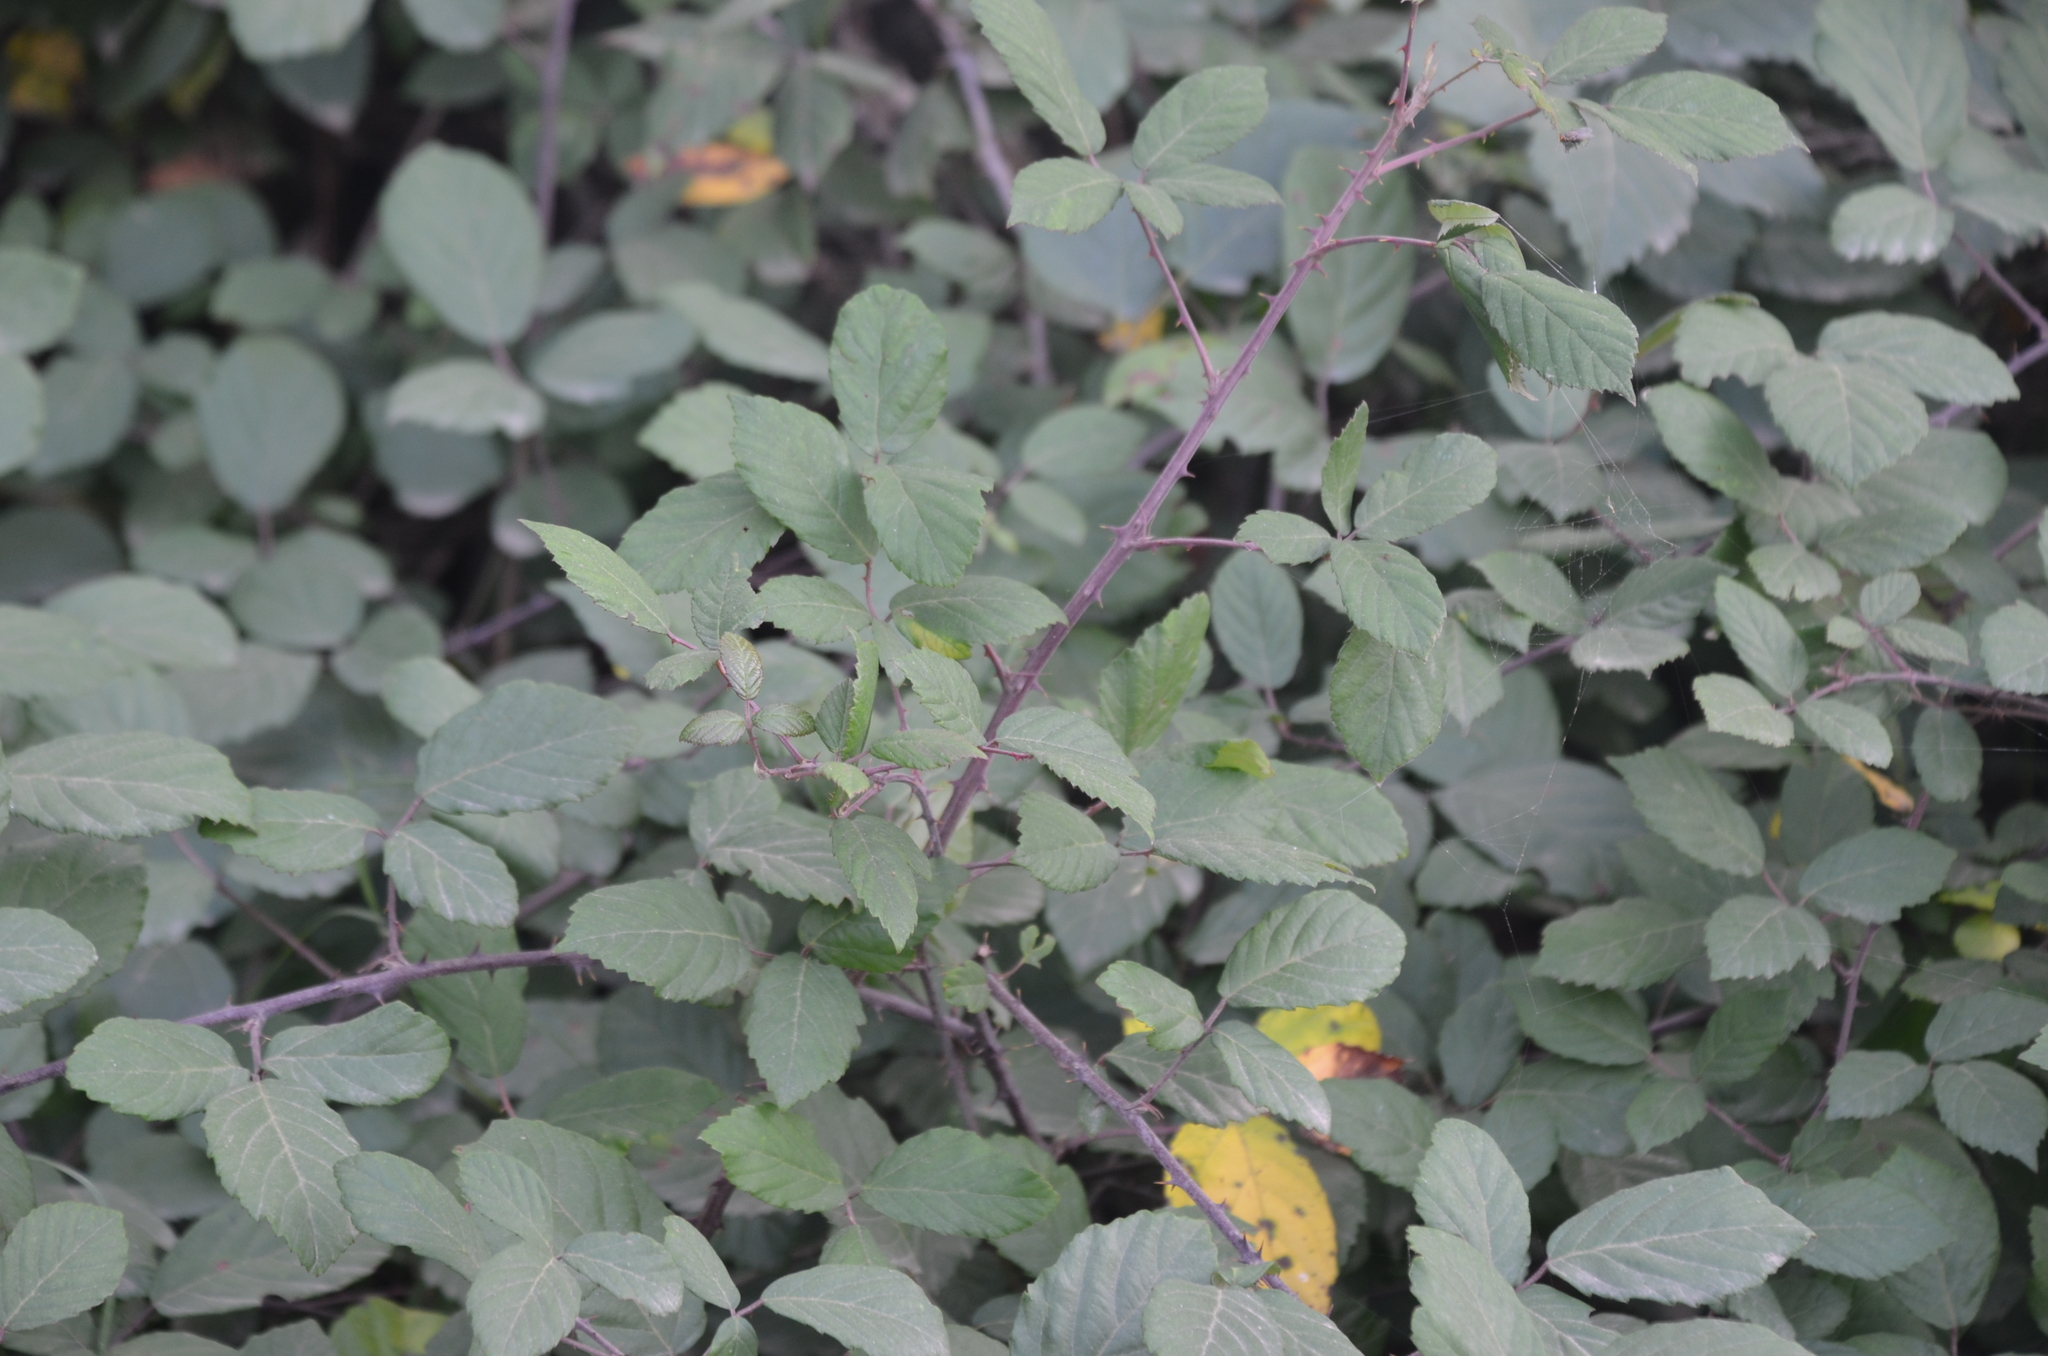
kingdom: Plantae
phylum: Tracheophyta
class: Magnoliopsida
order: Rosales
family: Rosaceae
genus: Rubus
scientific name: Rubus ulmifolius
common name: Elmleaf blackberry
